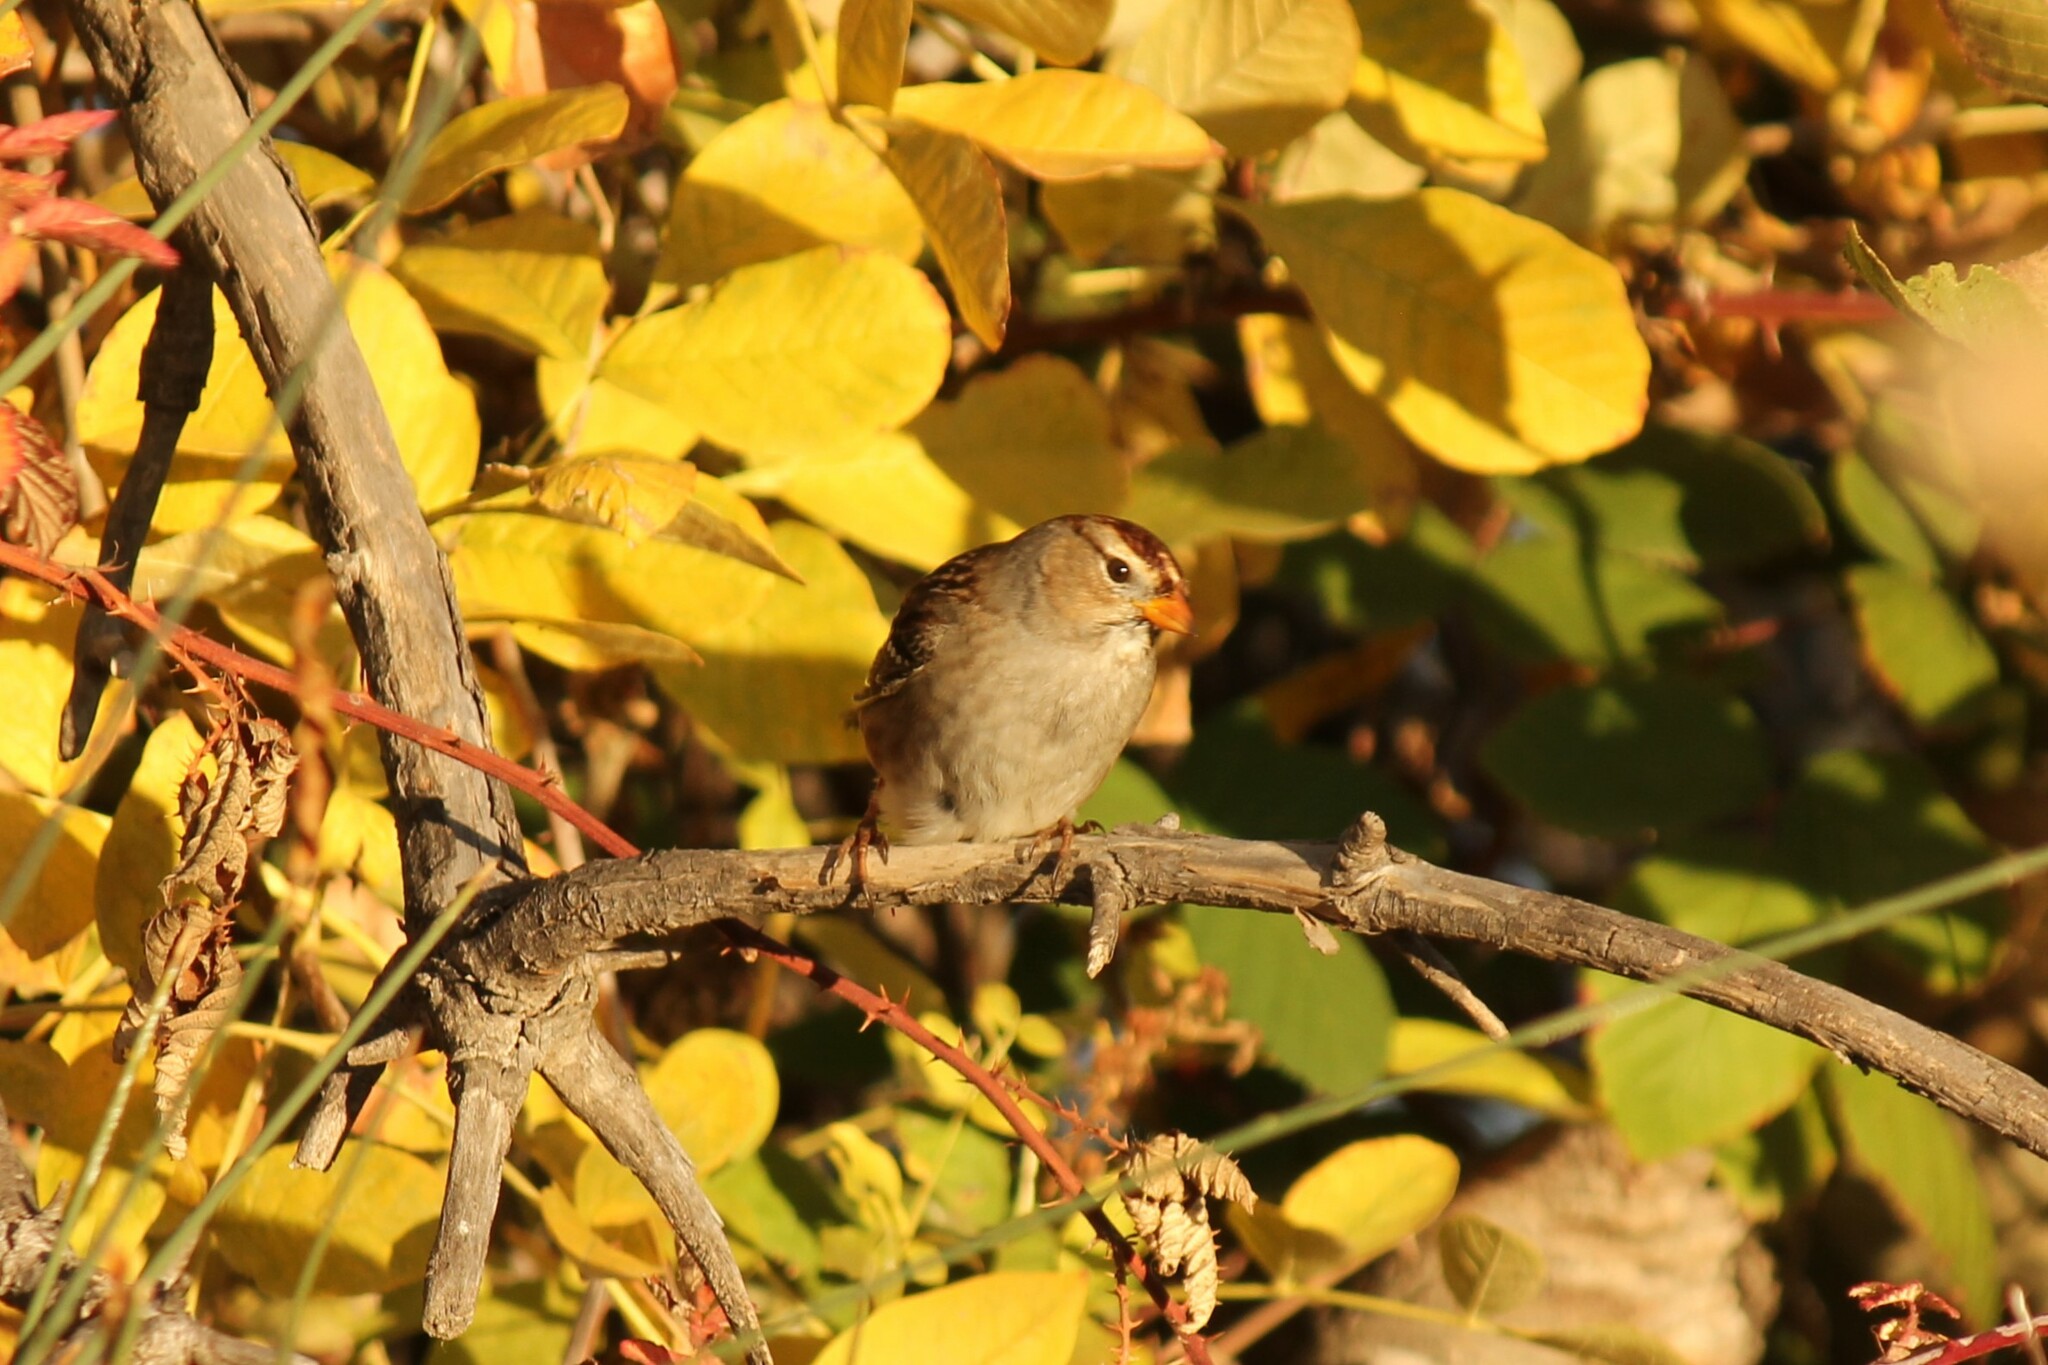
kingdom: Animalia
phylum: Chordata
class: Aves
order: Passeriformes
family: Passerellidae
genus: Zonotrichia
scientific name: Zonotrichia leucophrys
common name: White-crowned sparrow
